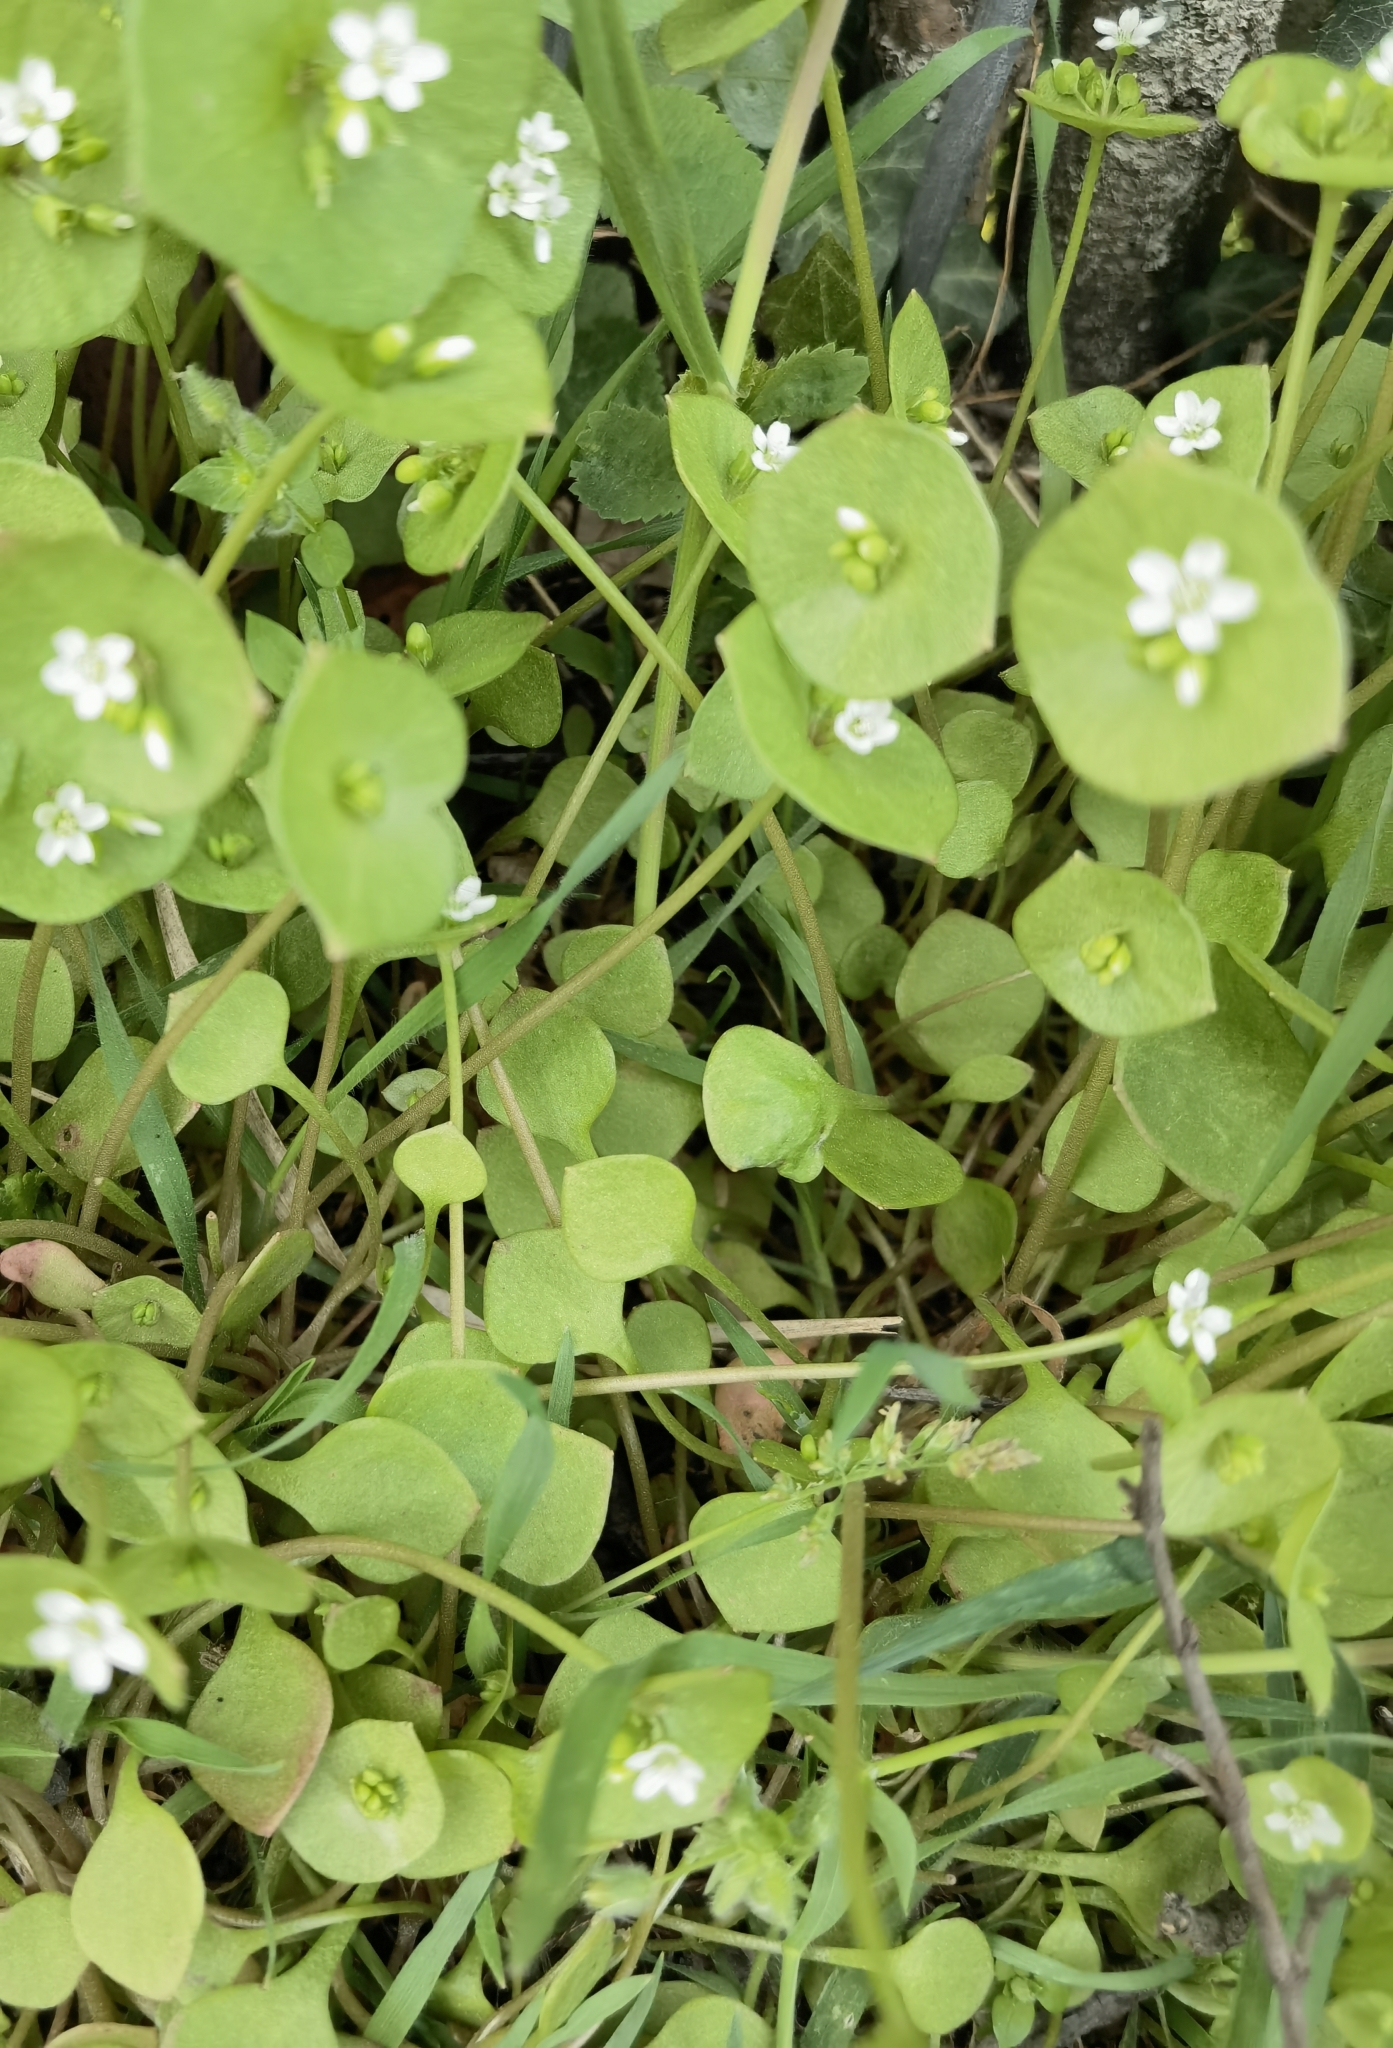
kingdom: Plantae
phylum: Tracheophyta
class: Magnoliopsida
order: Caryophyllales
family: Montiaceae
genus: Claytonia
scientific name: Claytonia perfoliata
